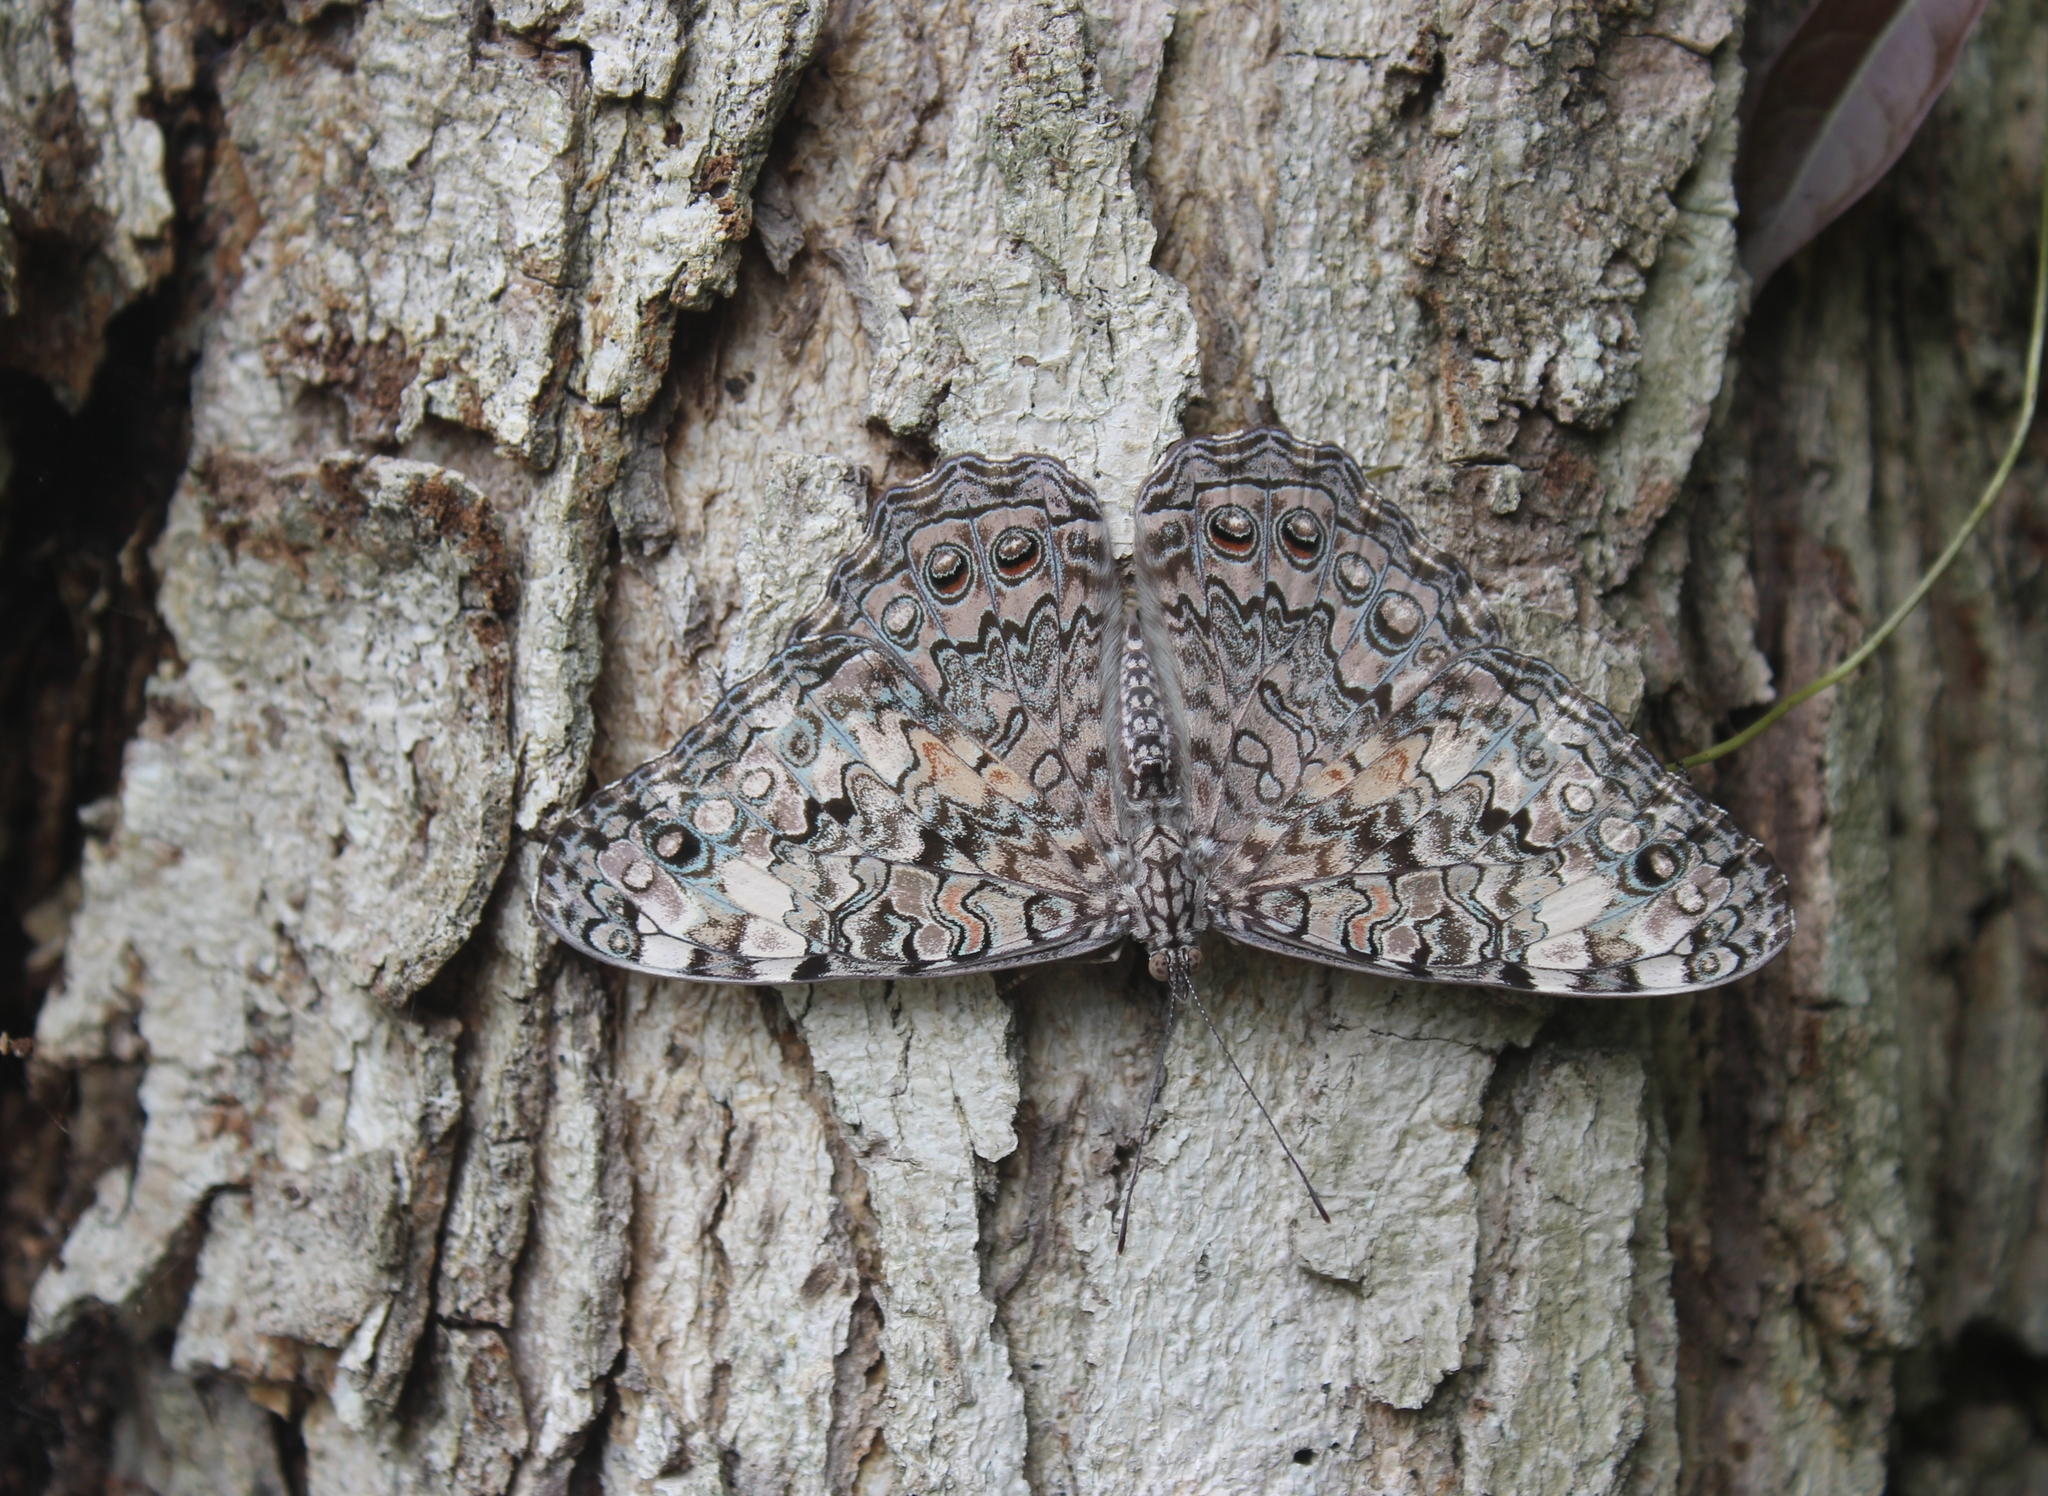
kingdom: Animalia
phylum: Arthropoda
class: Insecta
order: Lepidoptera
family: Nymphalidae
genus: Hamadryas
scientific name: Hamadryas februa
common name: Gray cracker
